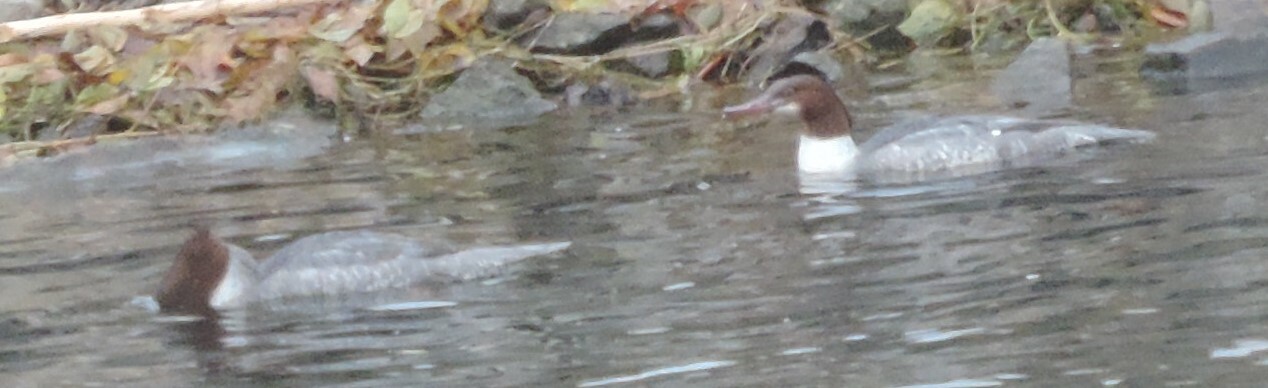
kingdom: Animalia
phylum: Chordata
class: Aves
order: Anseriformes
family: Anatidae
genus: Mergus
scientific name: Mergus merganser
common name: Common merganser
